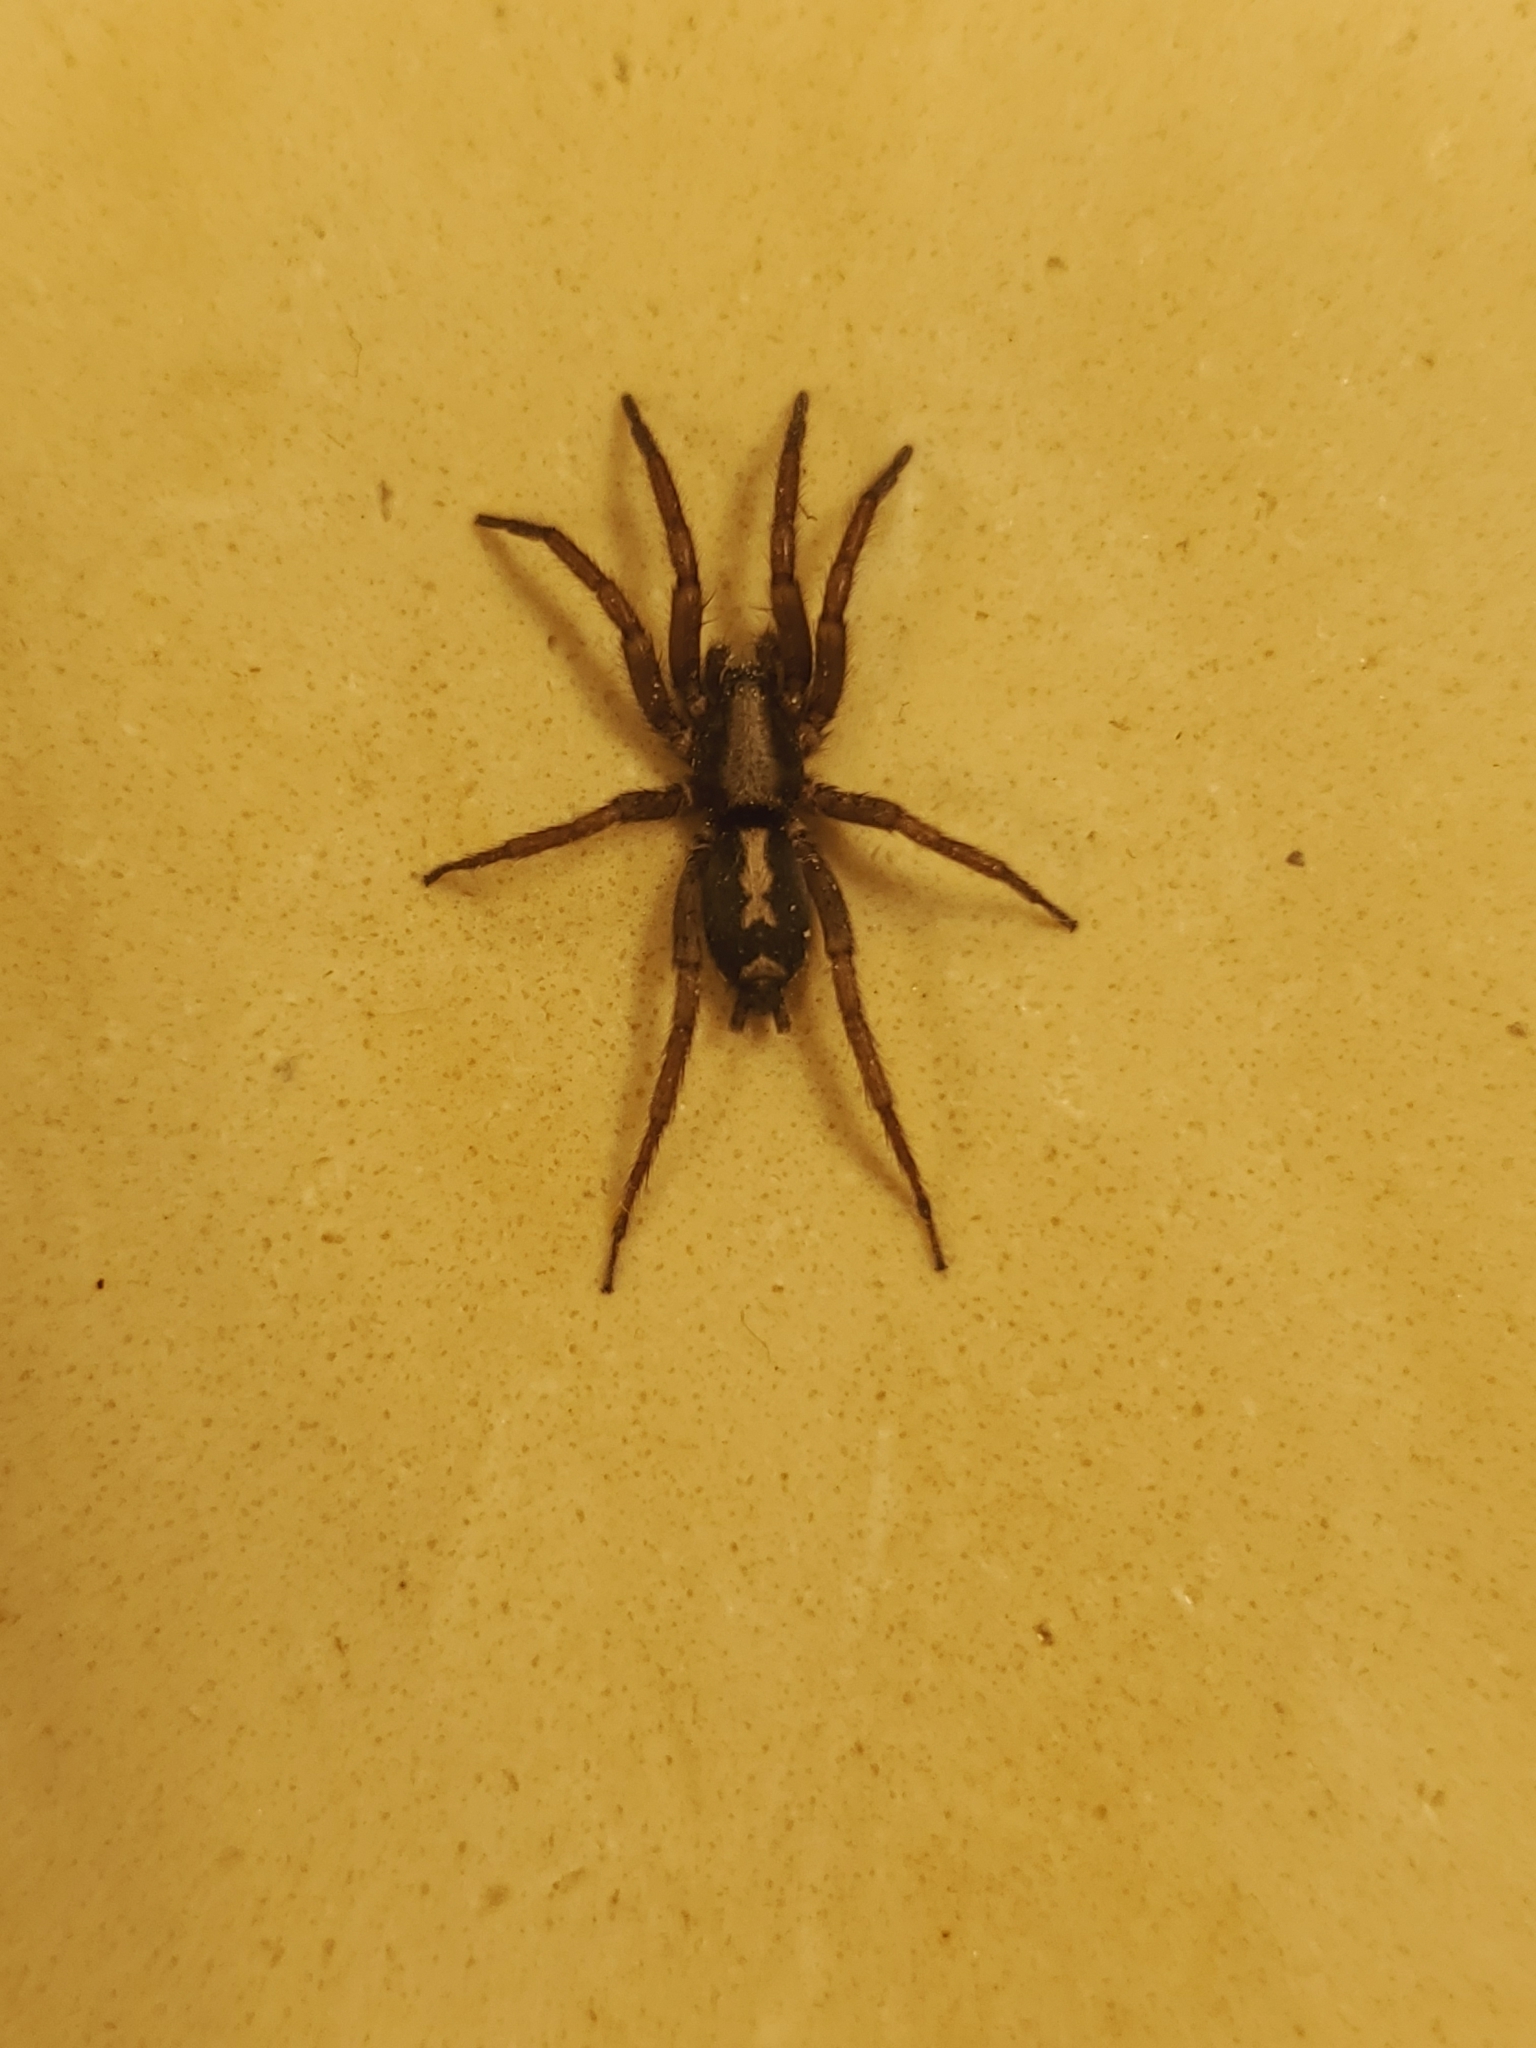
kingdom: Animalia
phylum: Arthropoda
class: Arachnida
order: Araneae
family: Gnaphosidae
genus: Herpyllus
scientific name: Herpyllus ecclesiasticus
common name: Eastern parson spider
